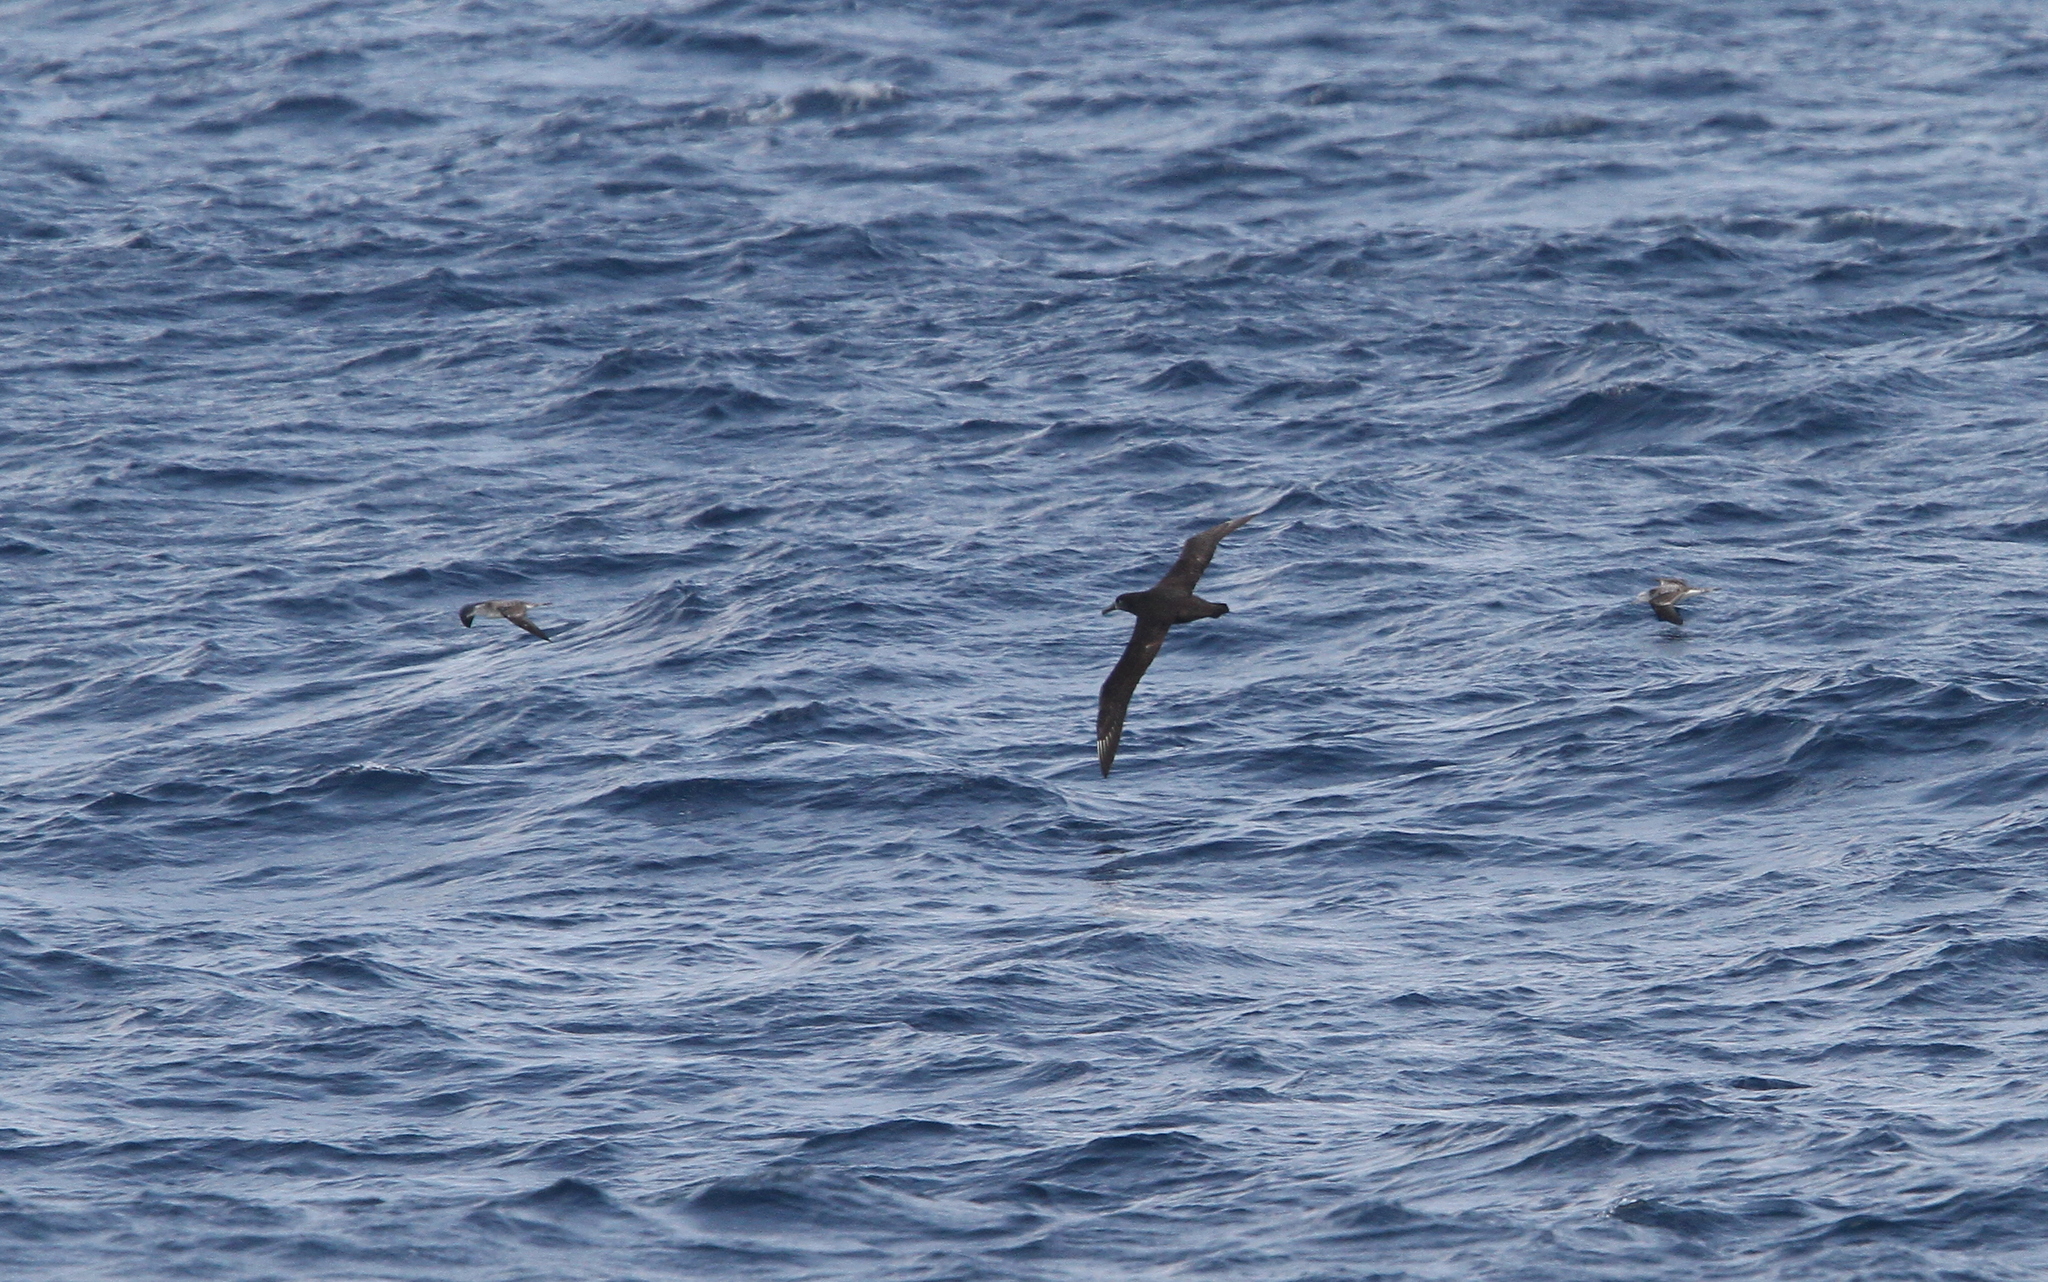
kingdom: Animalia
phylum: Chordata
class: Aves
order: Procellariiformes
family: Diomedeidae
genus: Phoebastria
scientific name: Phoebastria nigripes
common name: Black-footed albatross
